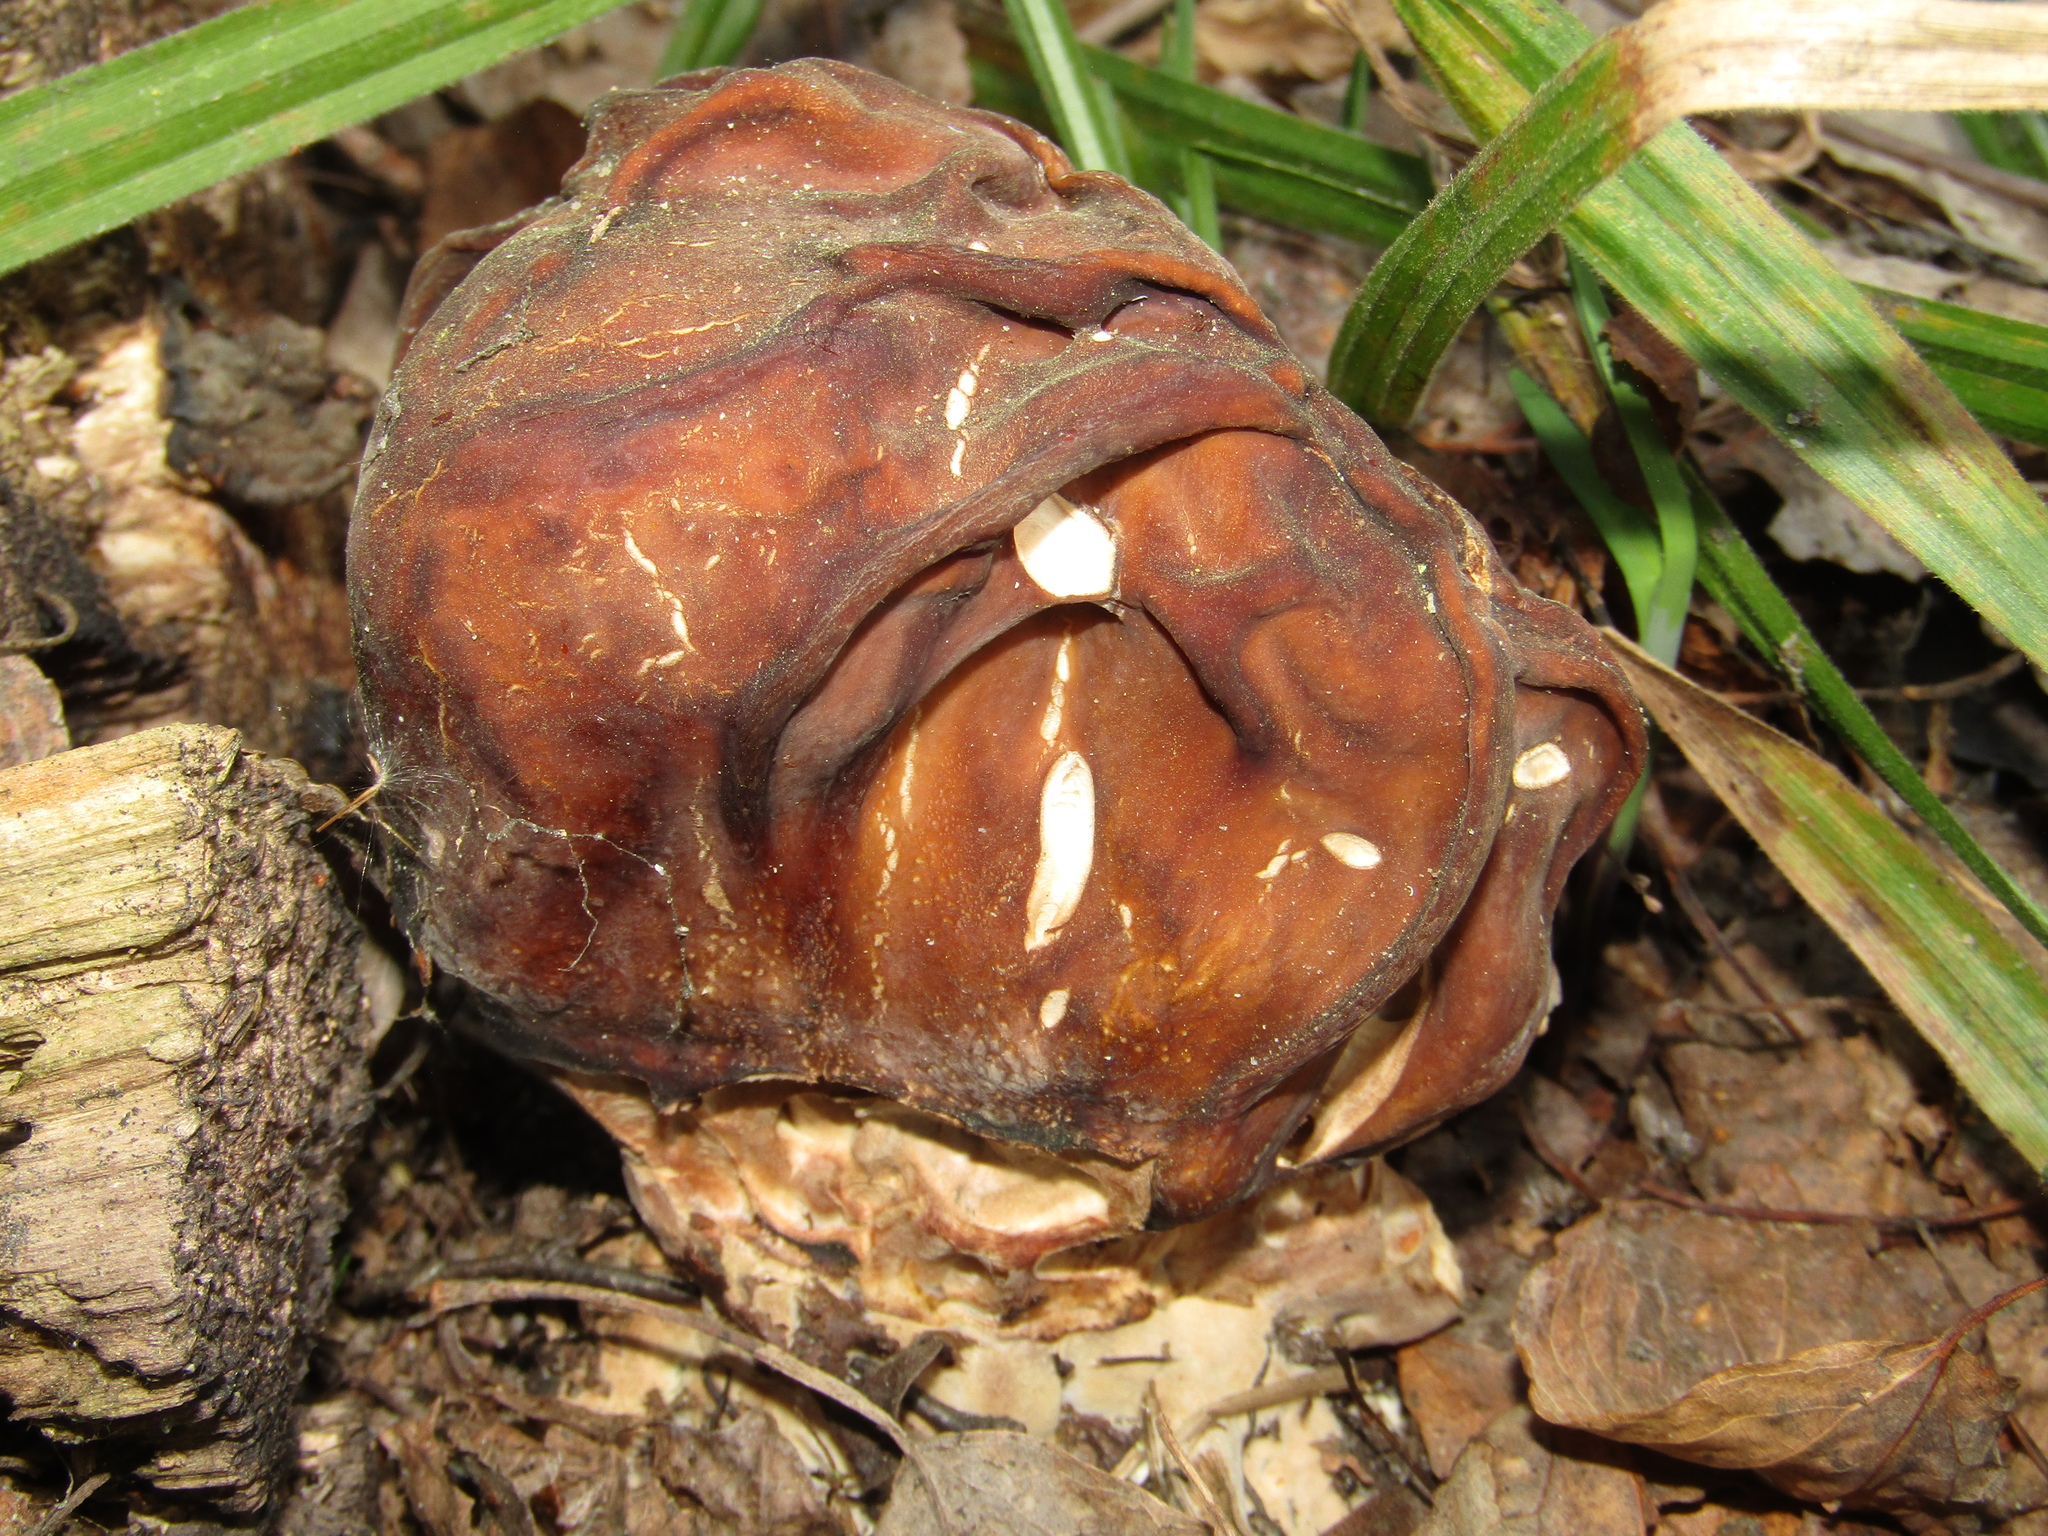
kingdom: Fungi
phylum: Ascomycota
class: Pezizomycetes
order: Pezizales
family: Discinaceae
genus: Gyromitra
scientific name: Gyromitra gigas
